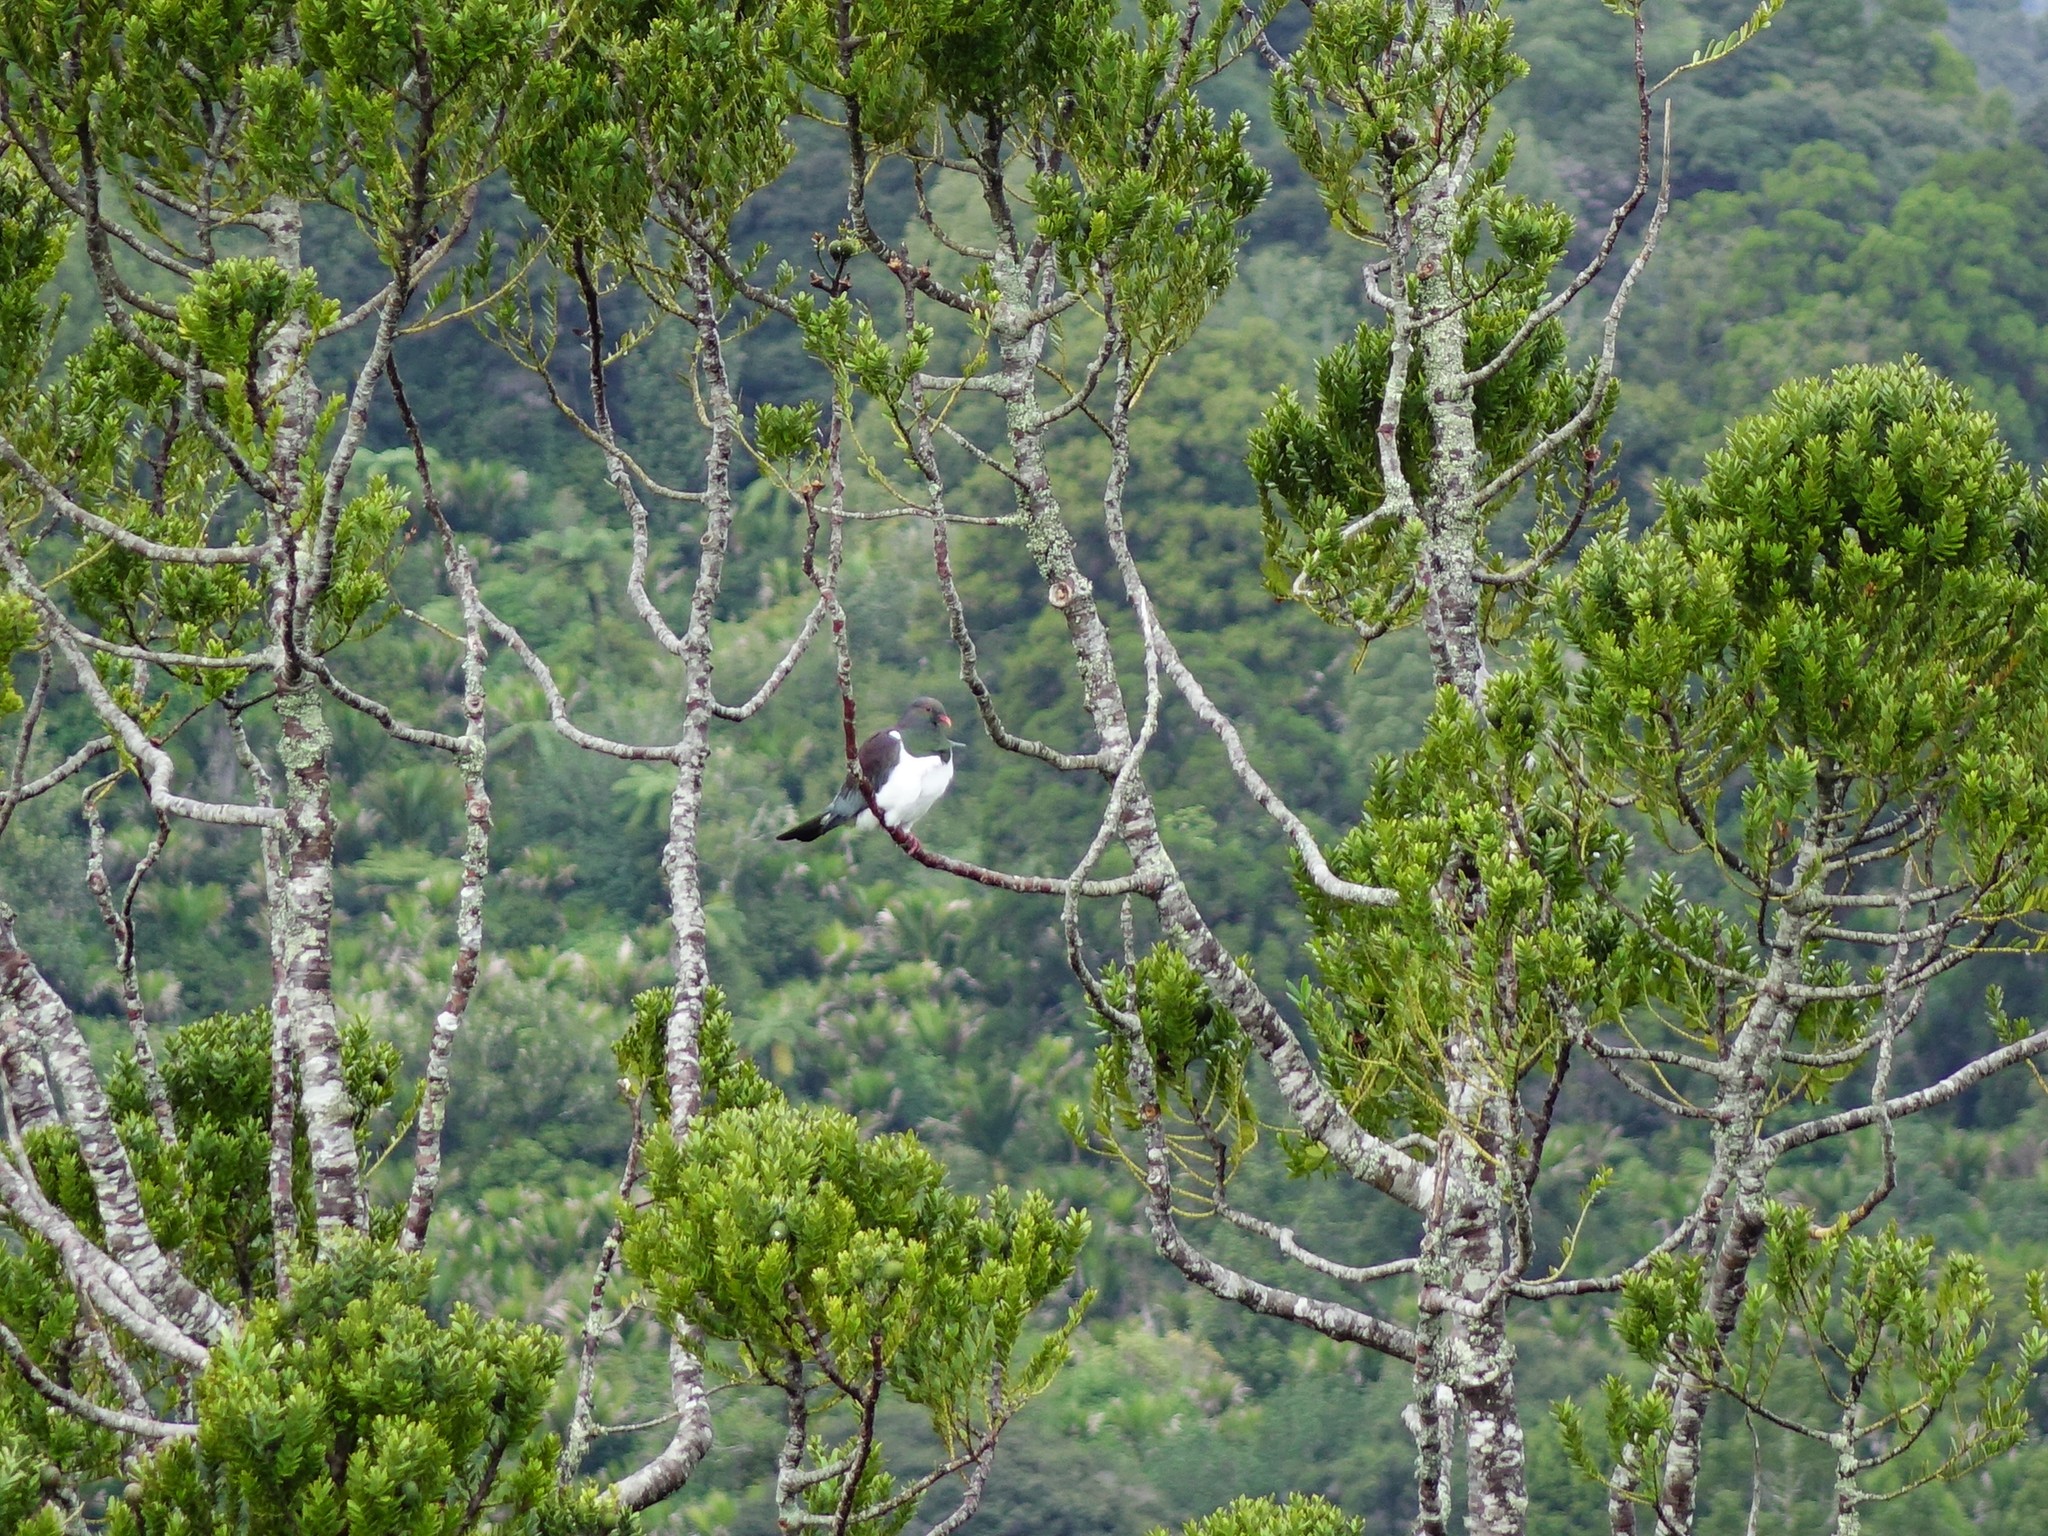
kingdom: Animalia
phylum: Chordata
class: Aves
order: Columbiformes
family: Columbidae
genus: Hemiphaga
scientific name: Hemiphaga novaeseelandiae
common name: New zealand pigeon
